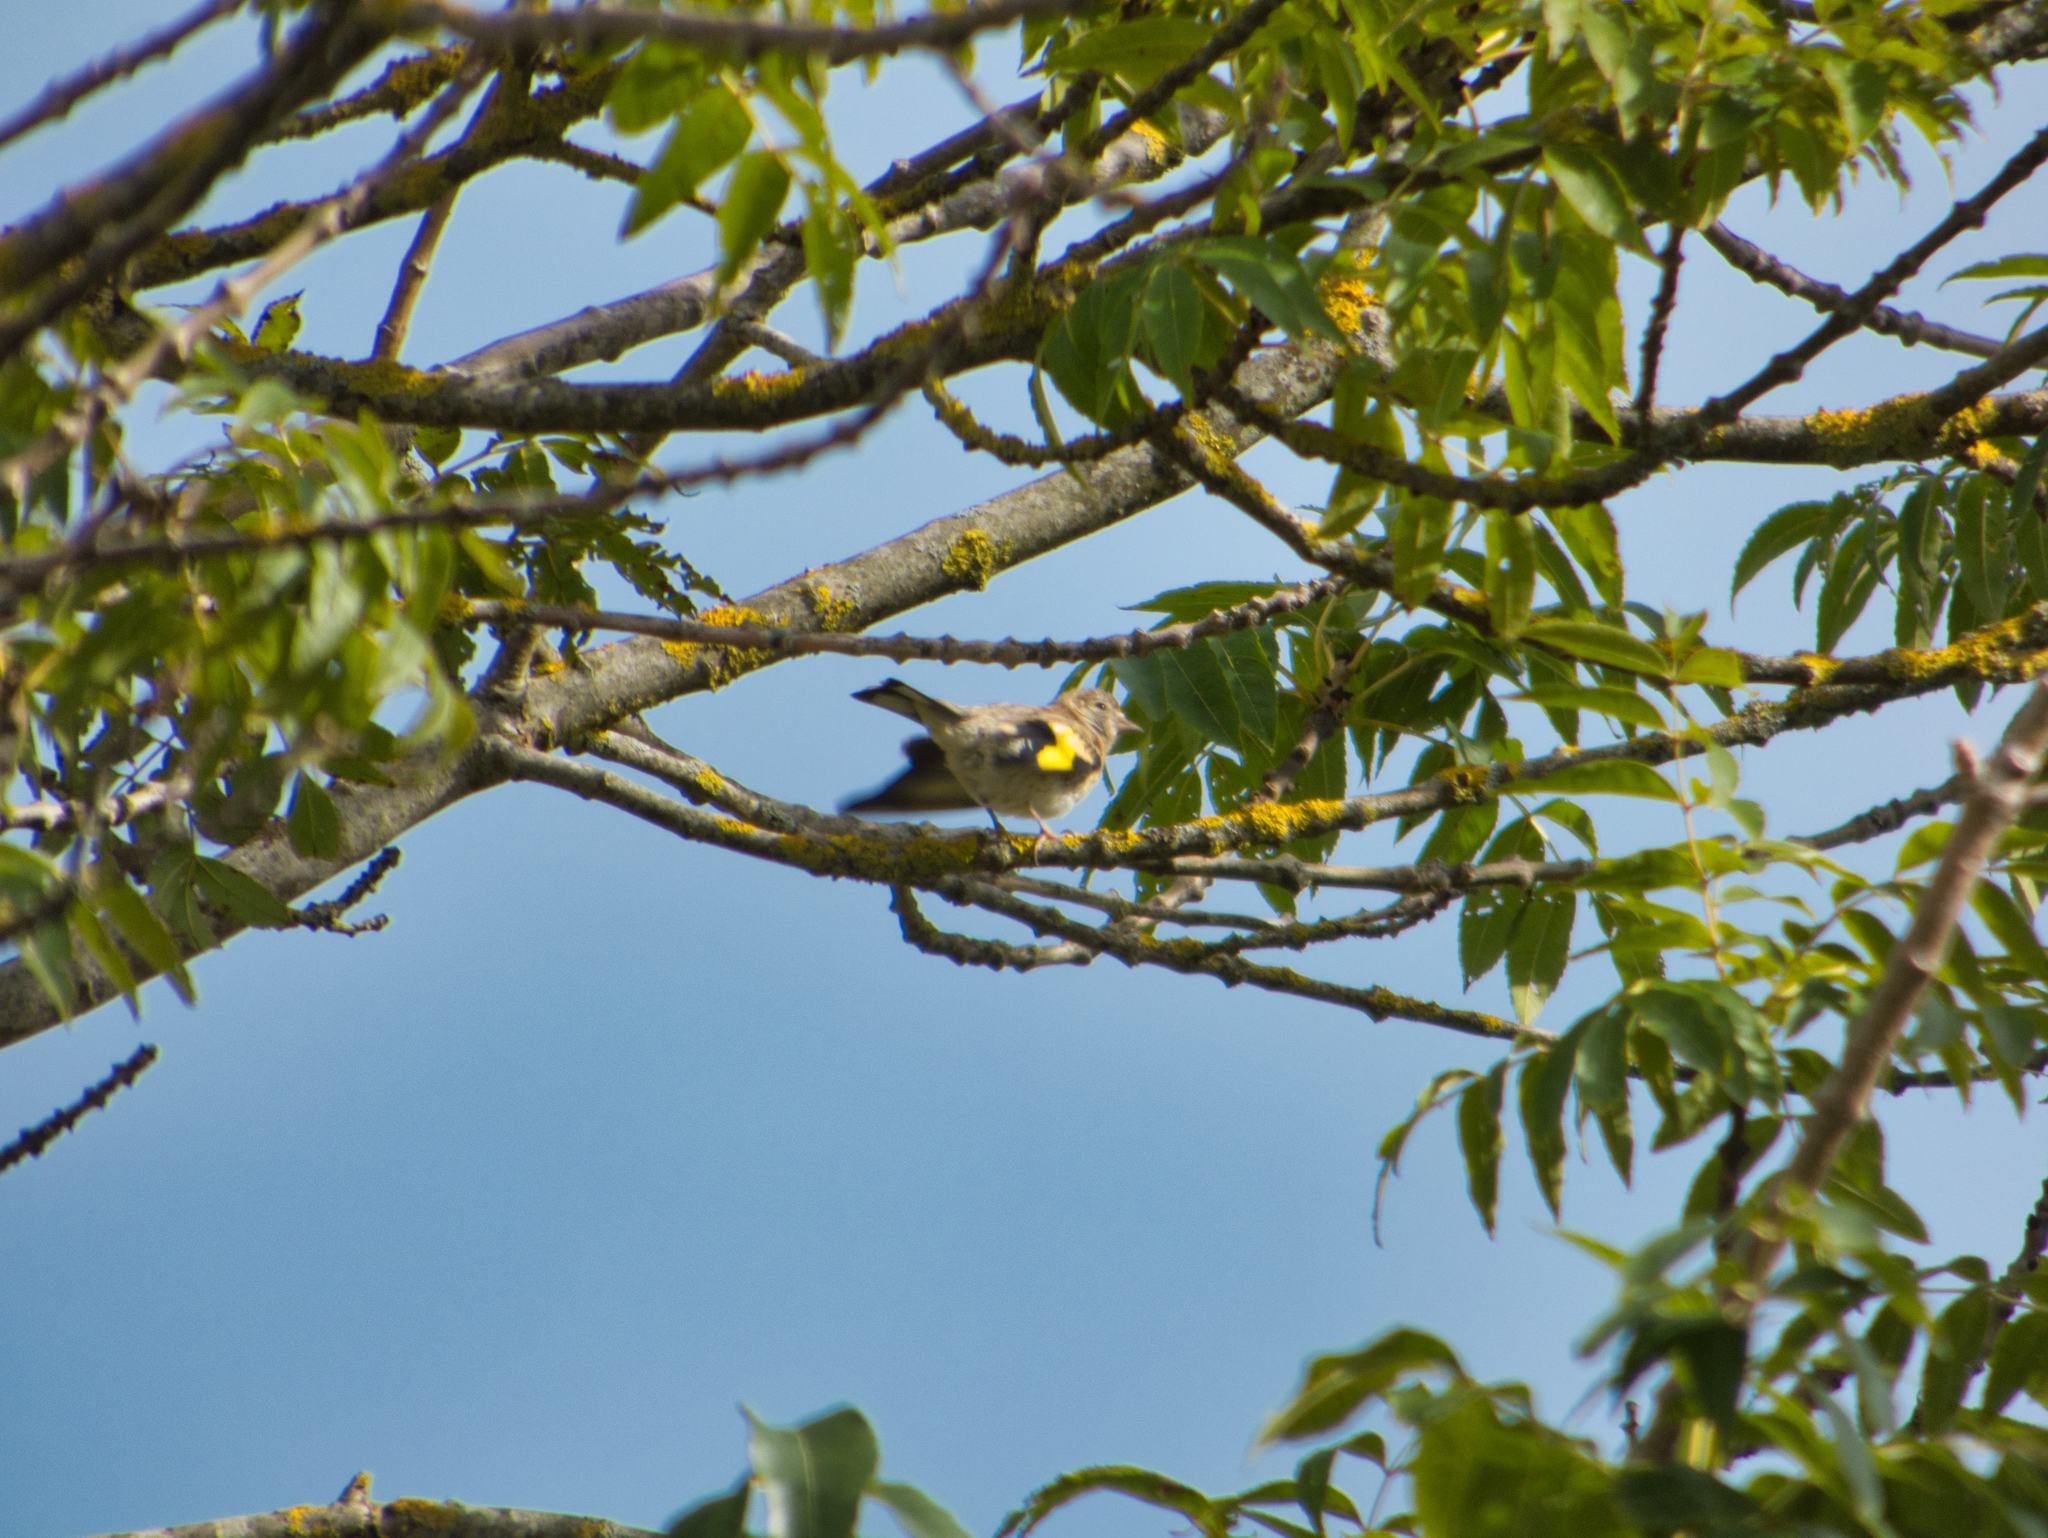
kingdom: Animalia
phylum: Chordata
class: Aves
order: Passeriformes
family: Fringillidae
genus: Carduelis
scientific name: Carduelis carduelis
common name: European goldfinch
